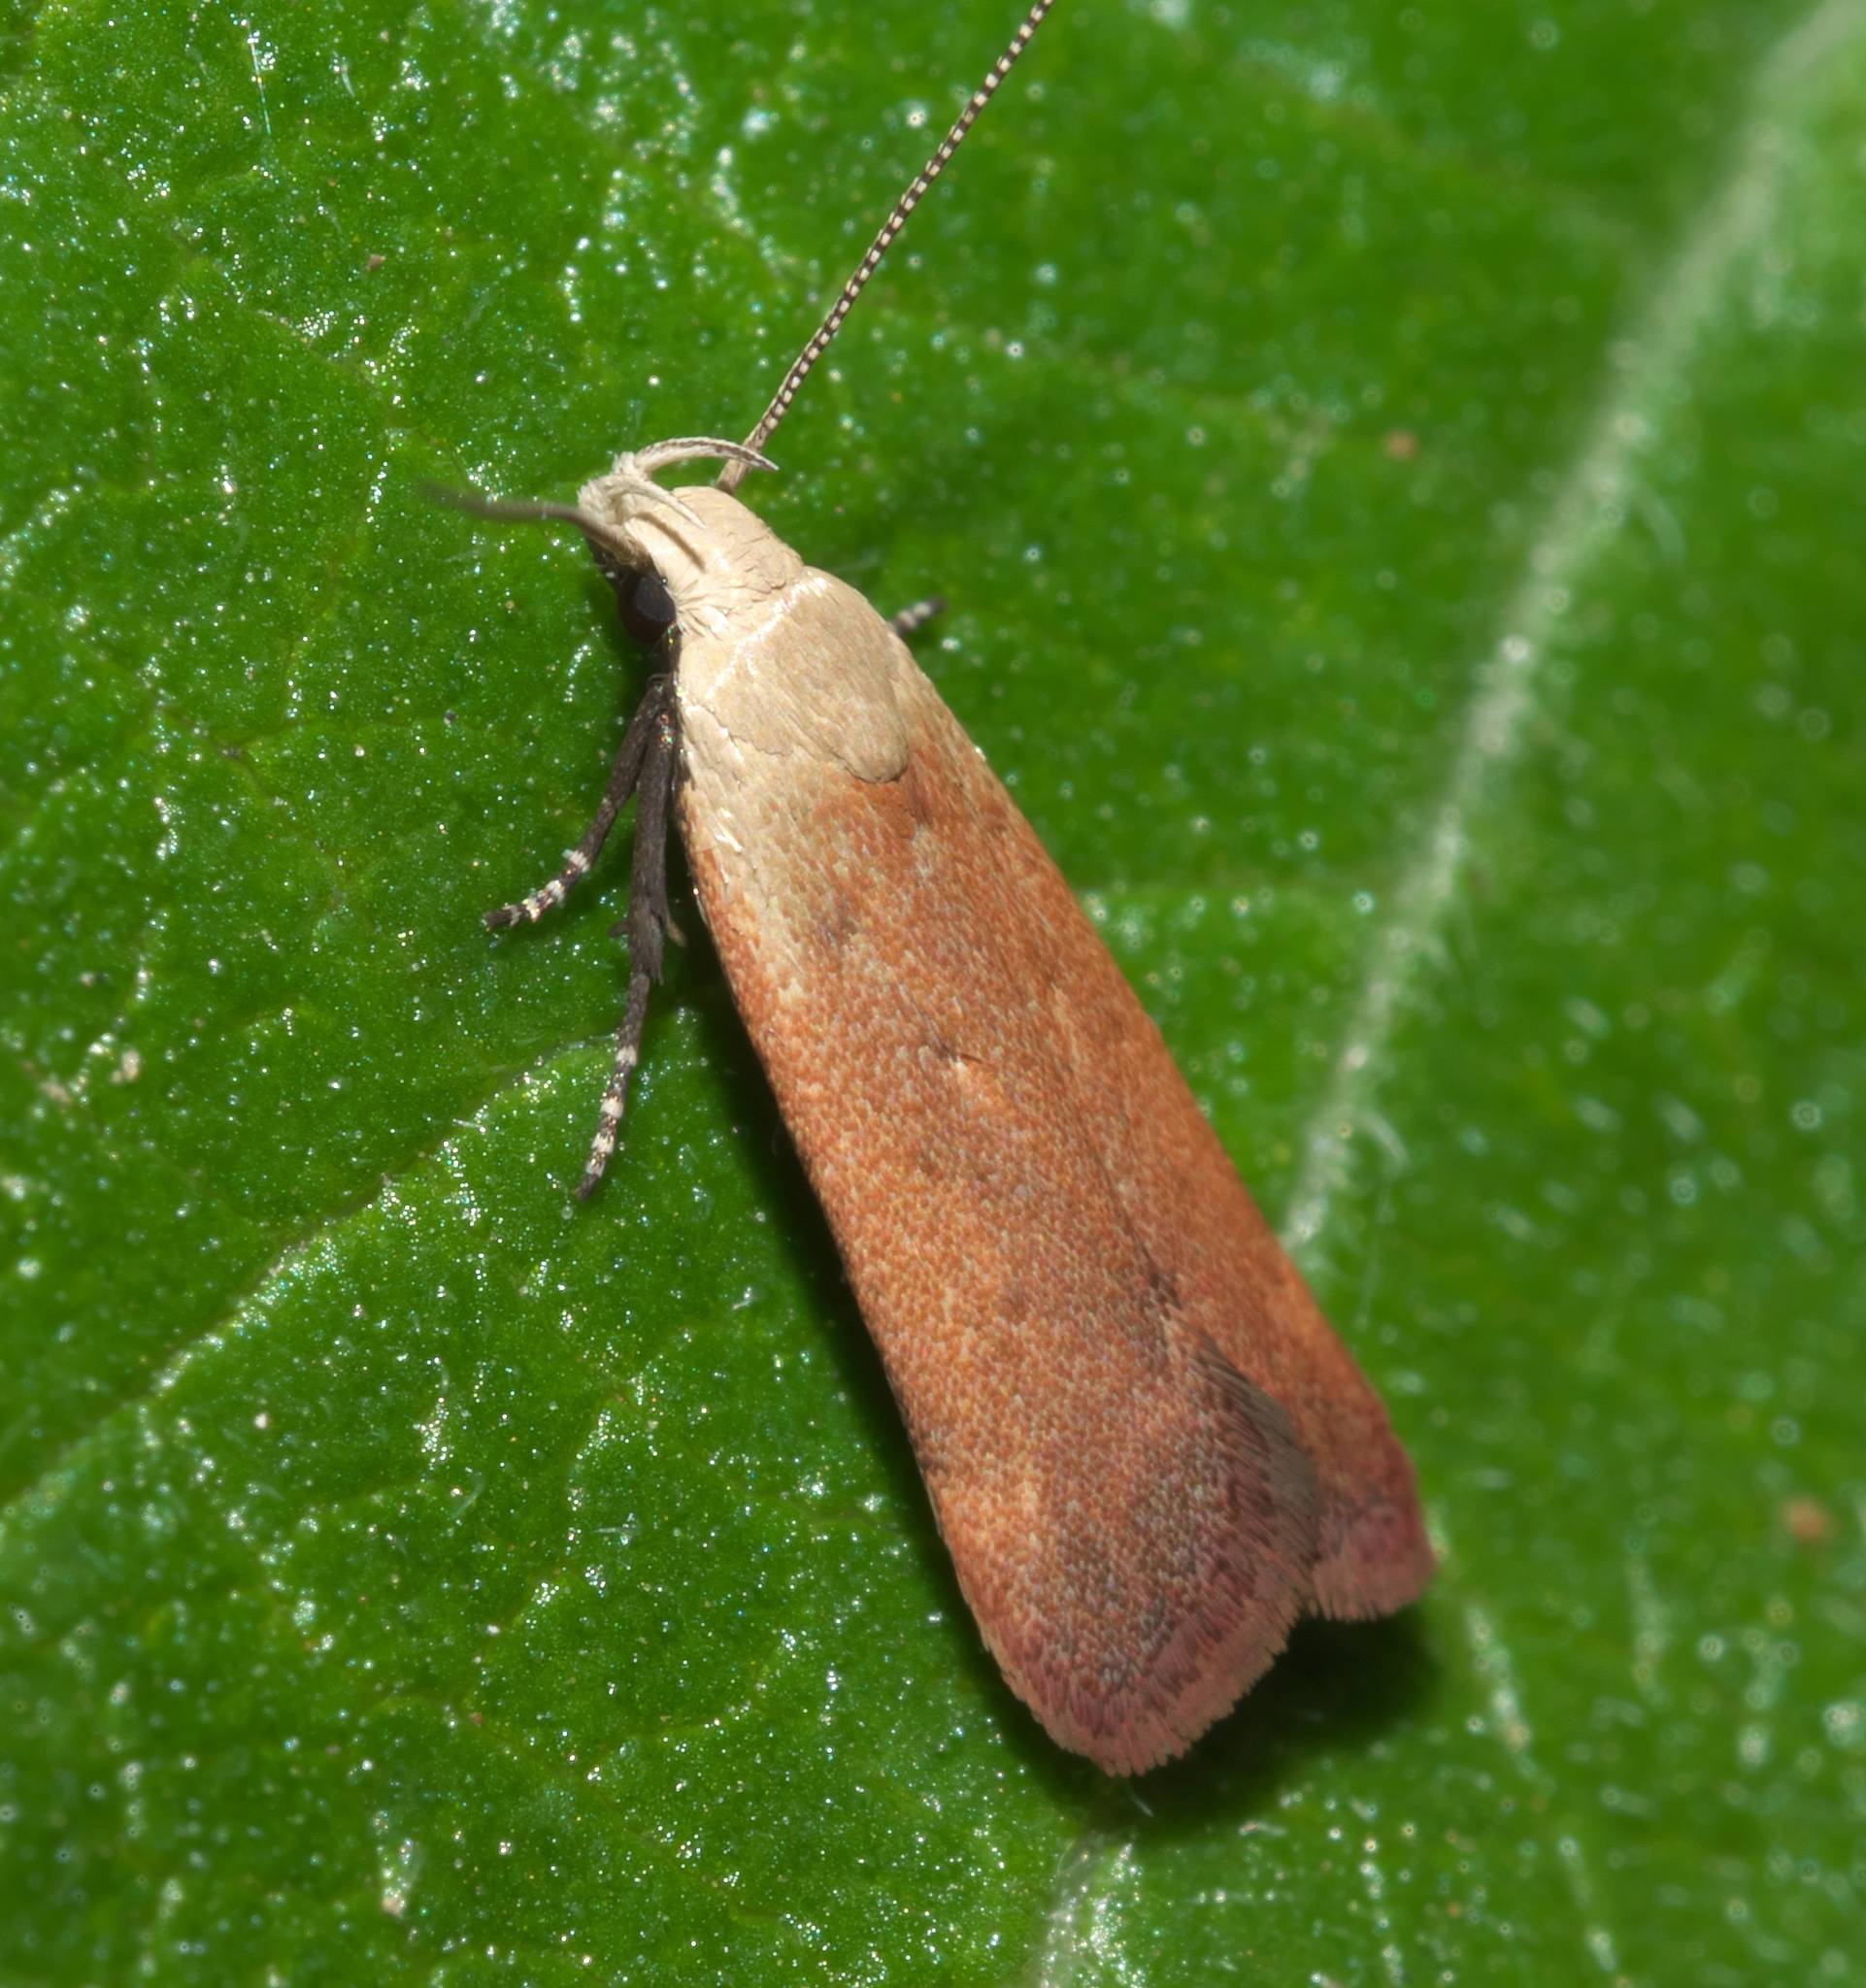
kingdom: Animalia
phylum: Arthropoda
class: Insecta
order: Lepidoptera
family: Gelechiidae
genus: Anacampsis
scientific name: Anacampsis fullonella
